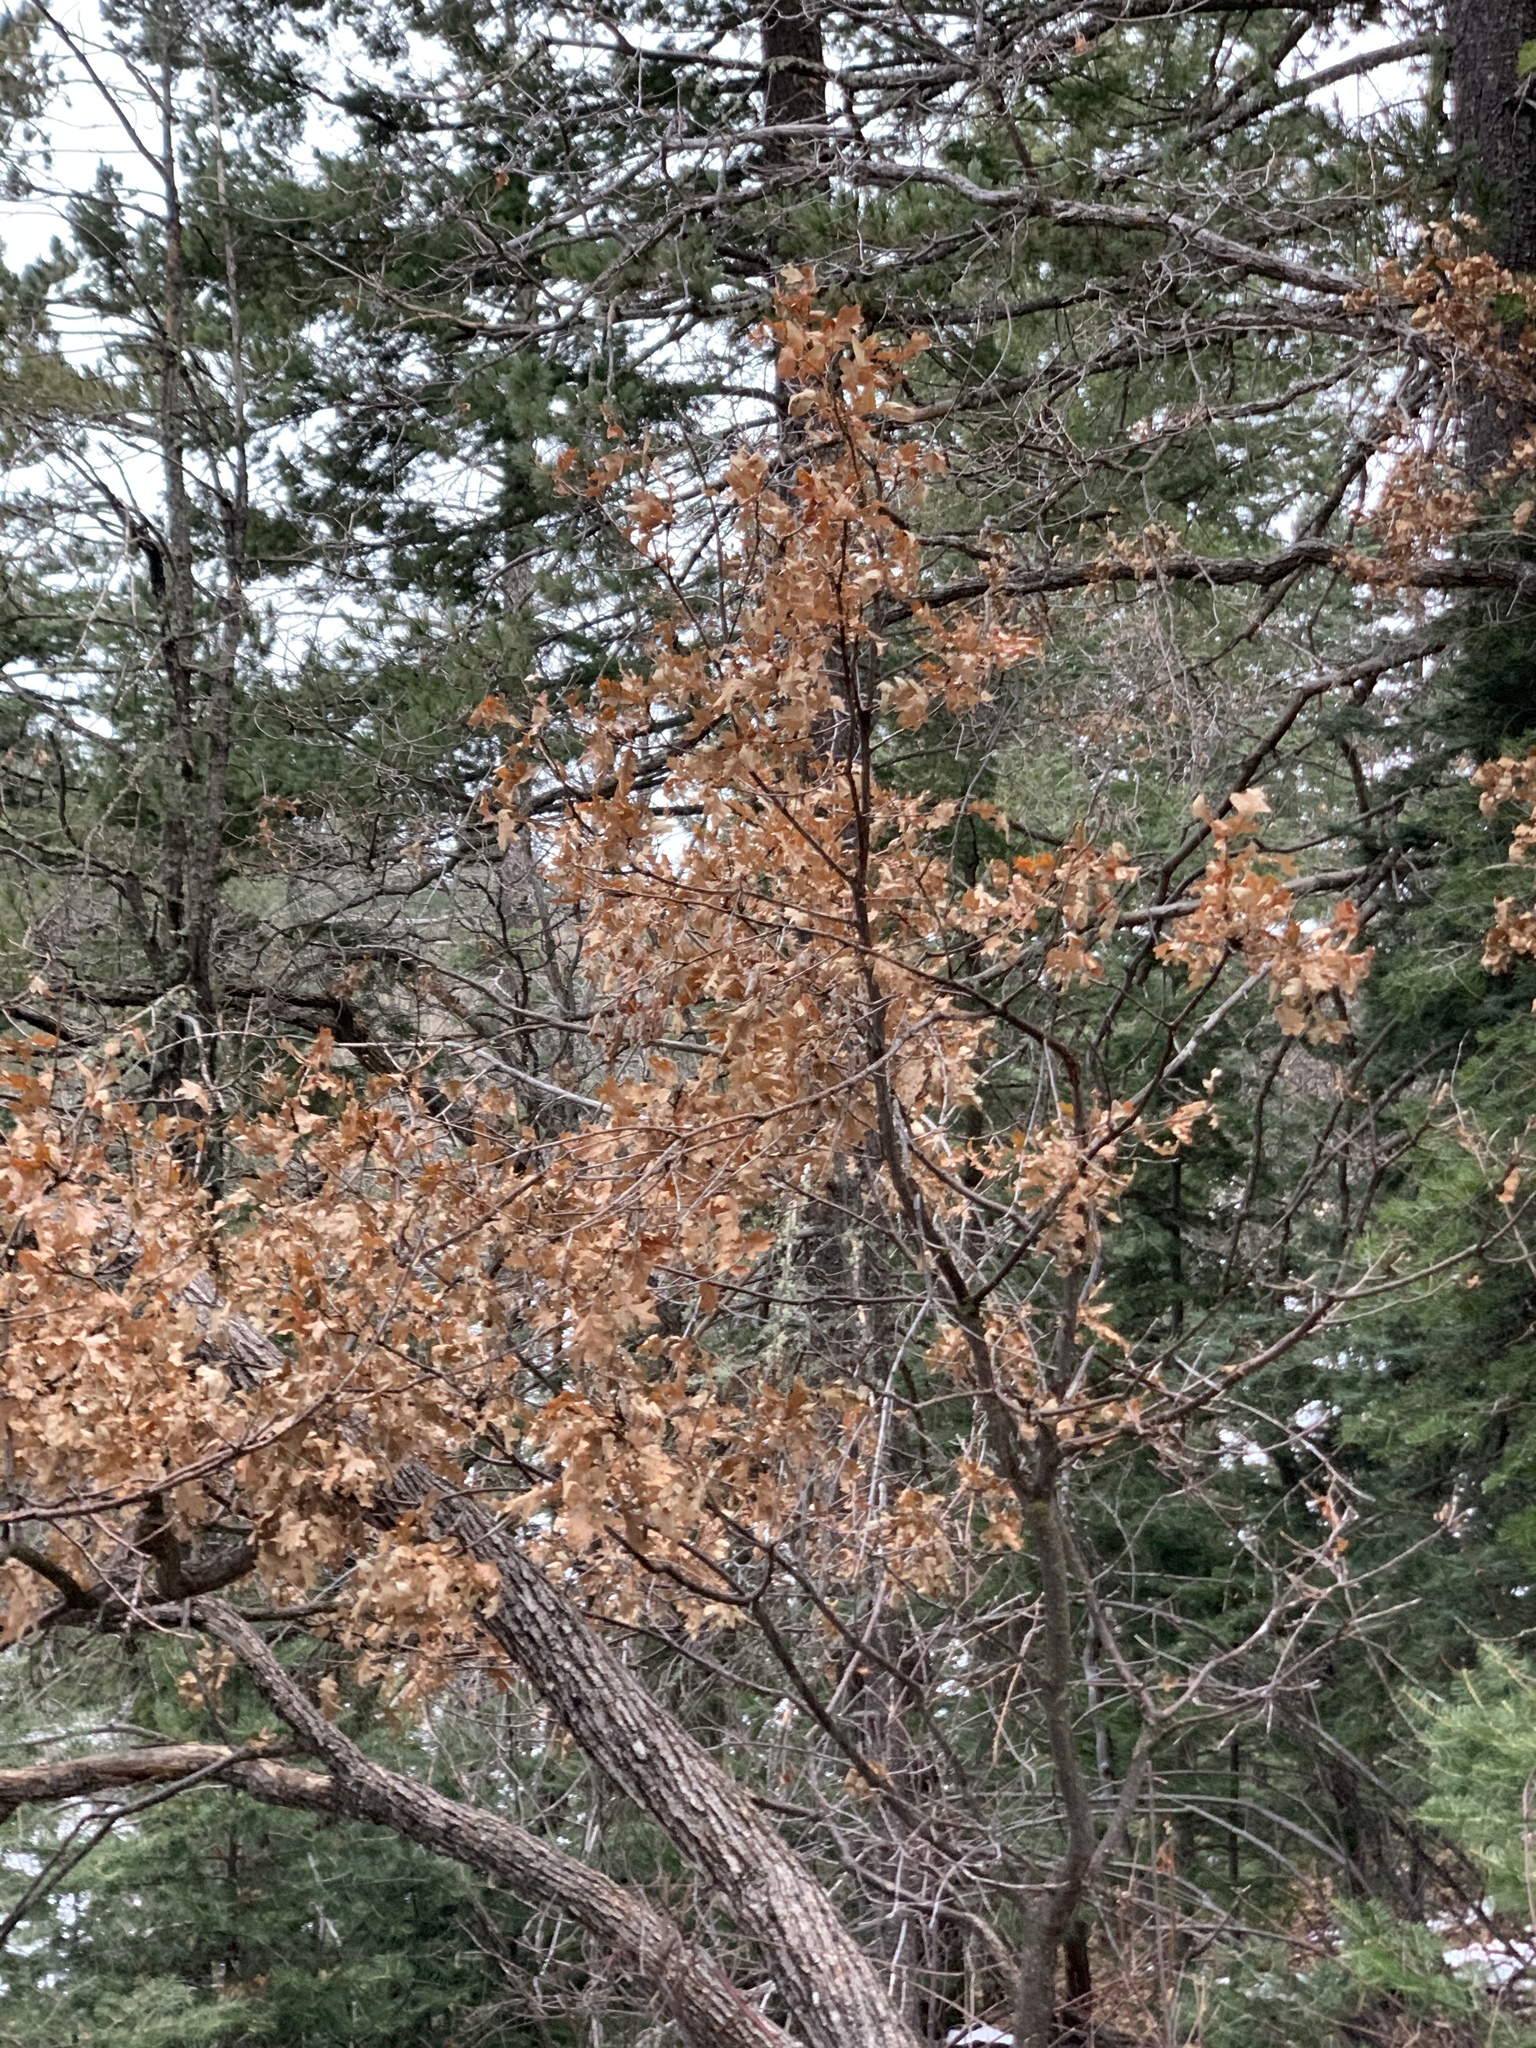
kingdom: Plantae
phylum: Tracheophyta
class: Magnoliopsida
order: Fagales
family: Fagaceae
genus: Quercus
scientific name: Quercus gambelii
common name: Gambel oak
